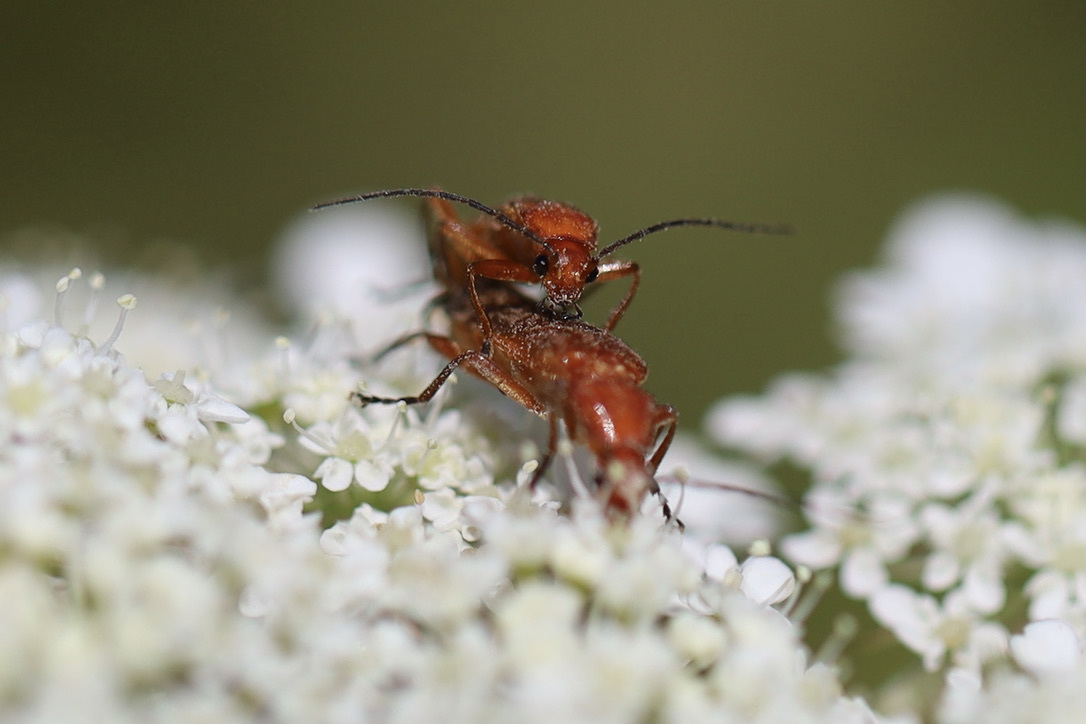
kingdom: Animalia
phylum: Arthropoda
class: Insecta
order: Coleoptera
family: Cantharidae
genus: Rhagonycha
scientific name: Rhagonycha fulva
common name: Common red soldier beetle
